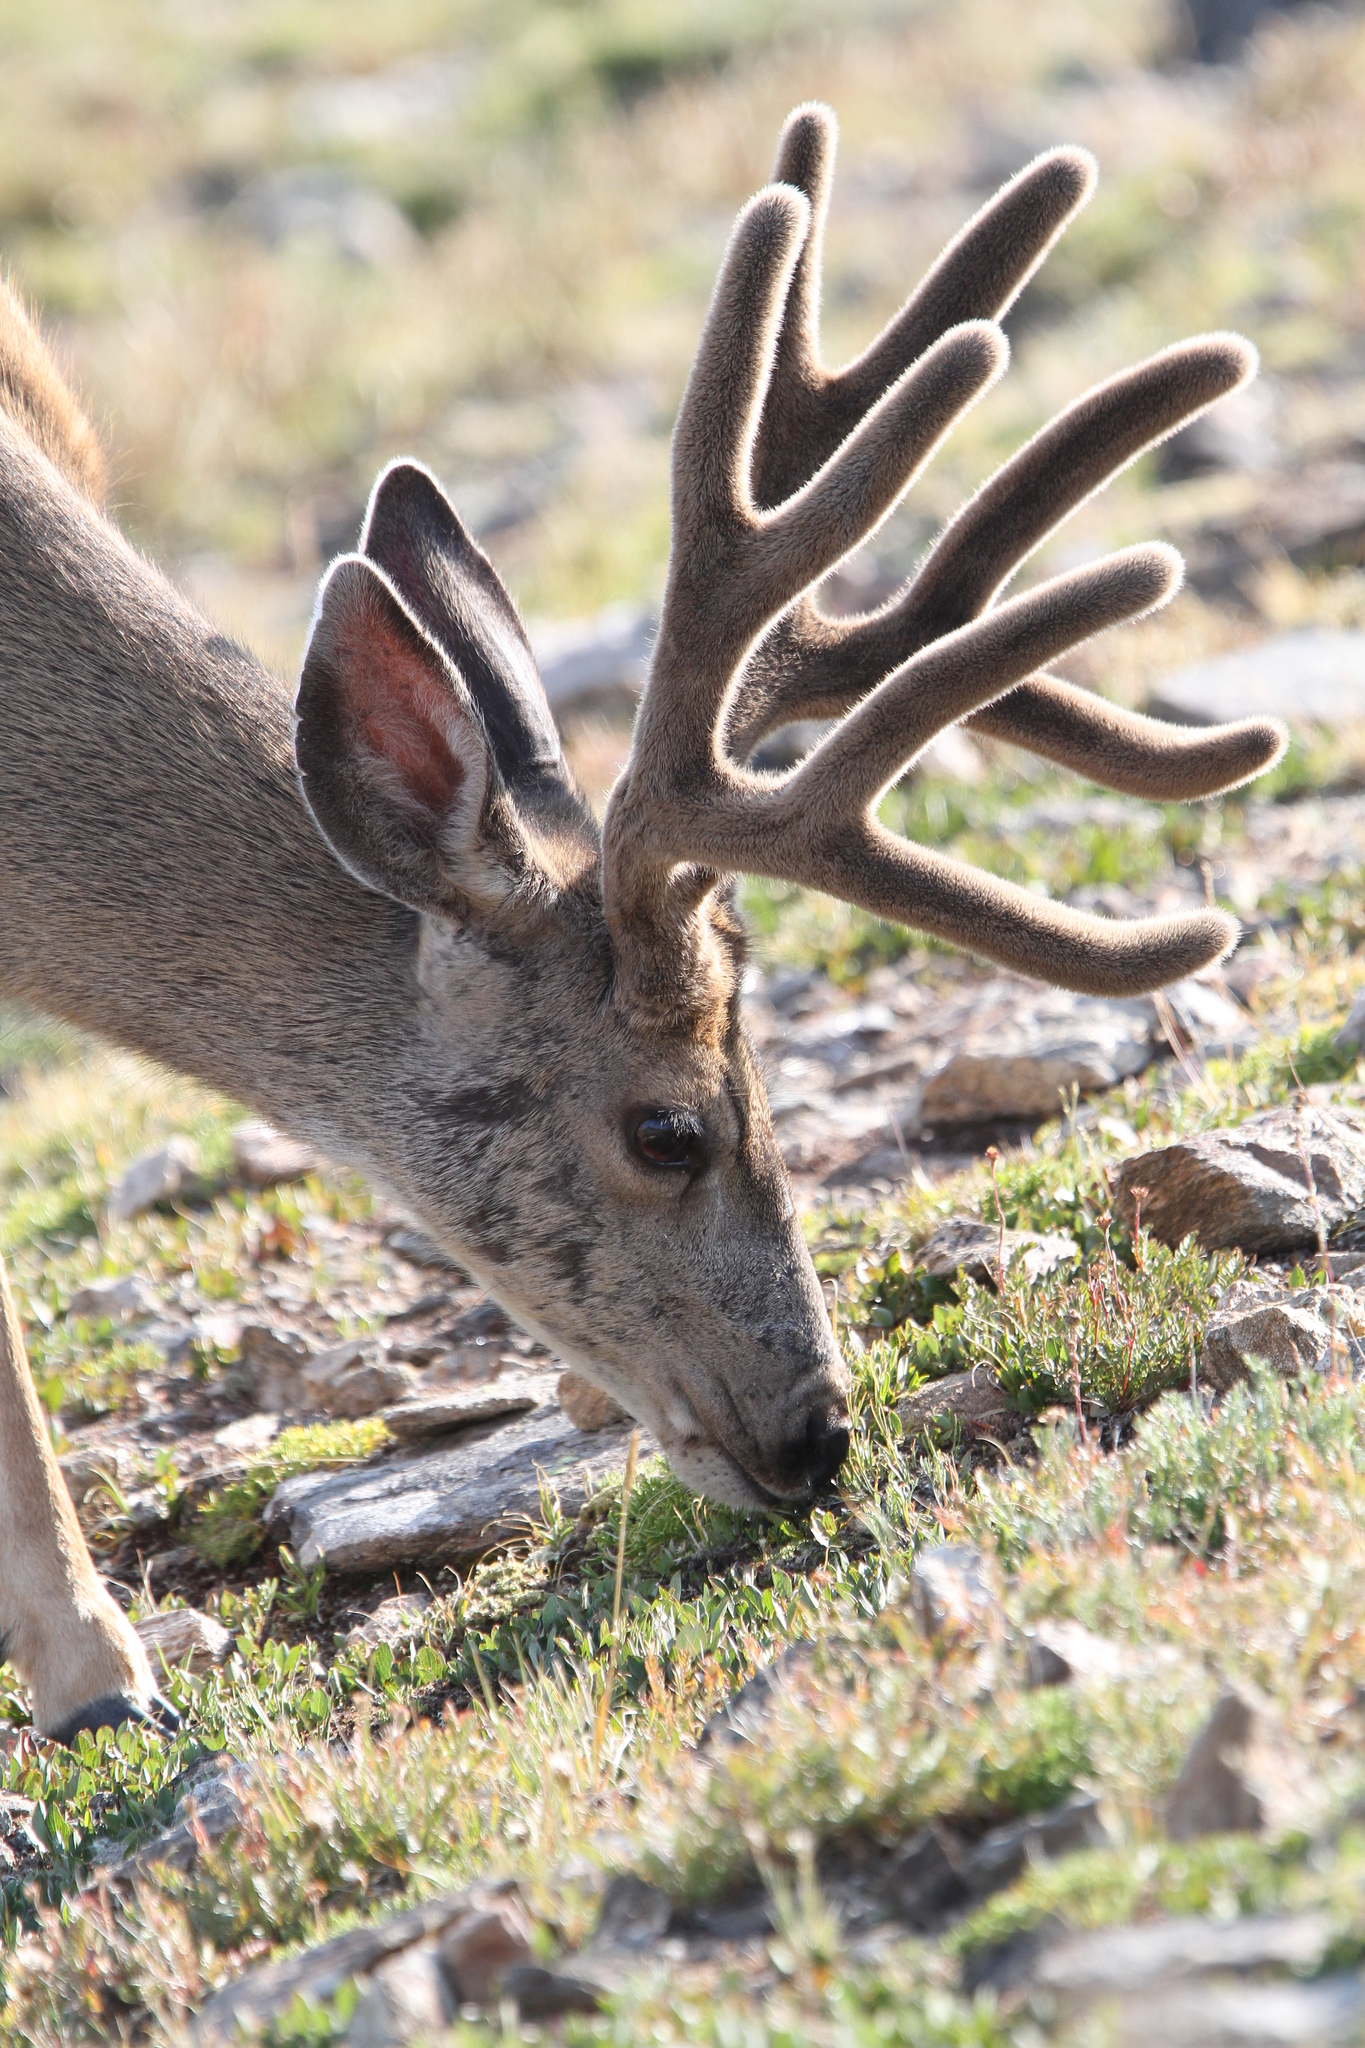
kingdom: Animalia
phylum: Chordata
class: Mammalia
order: Artiodactyla
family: Cervidae
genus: Odocoileus
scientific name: Odocoileus hemionus
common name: Mule deer
